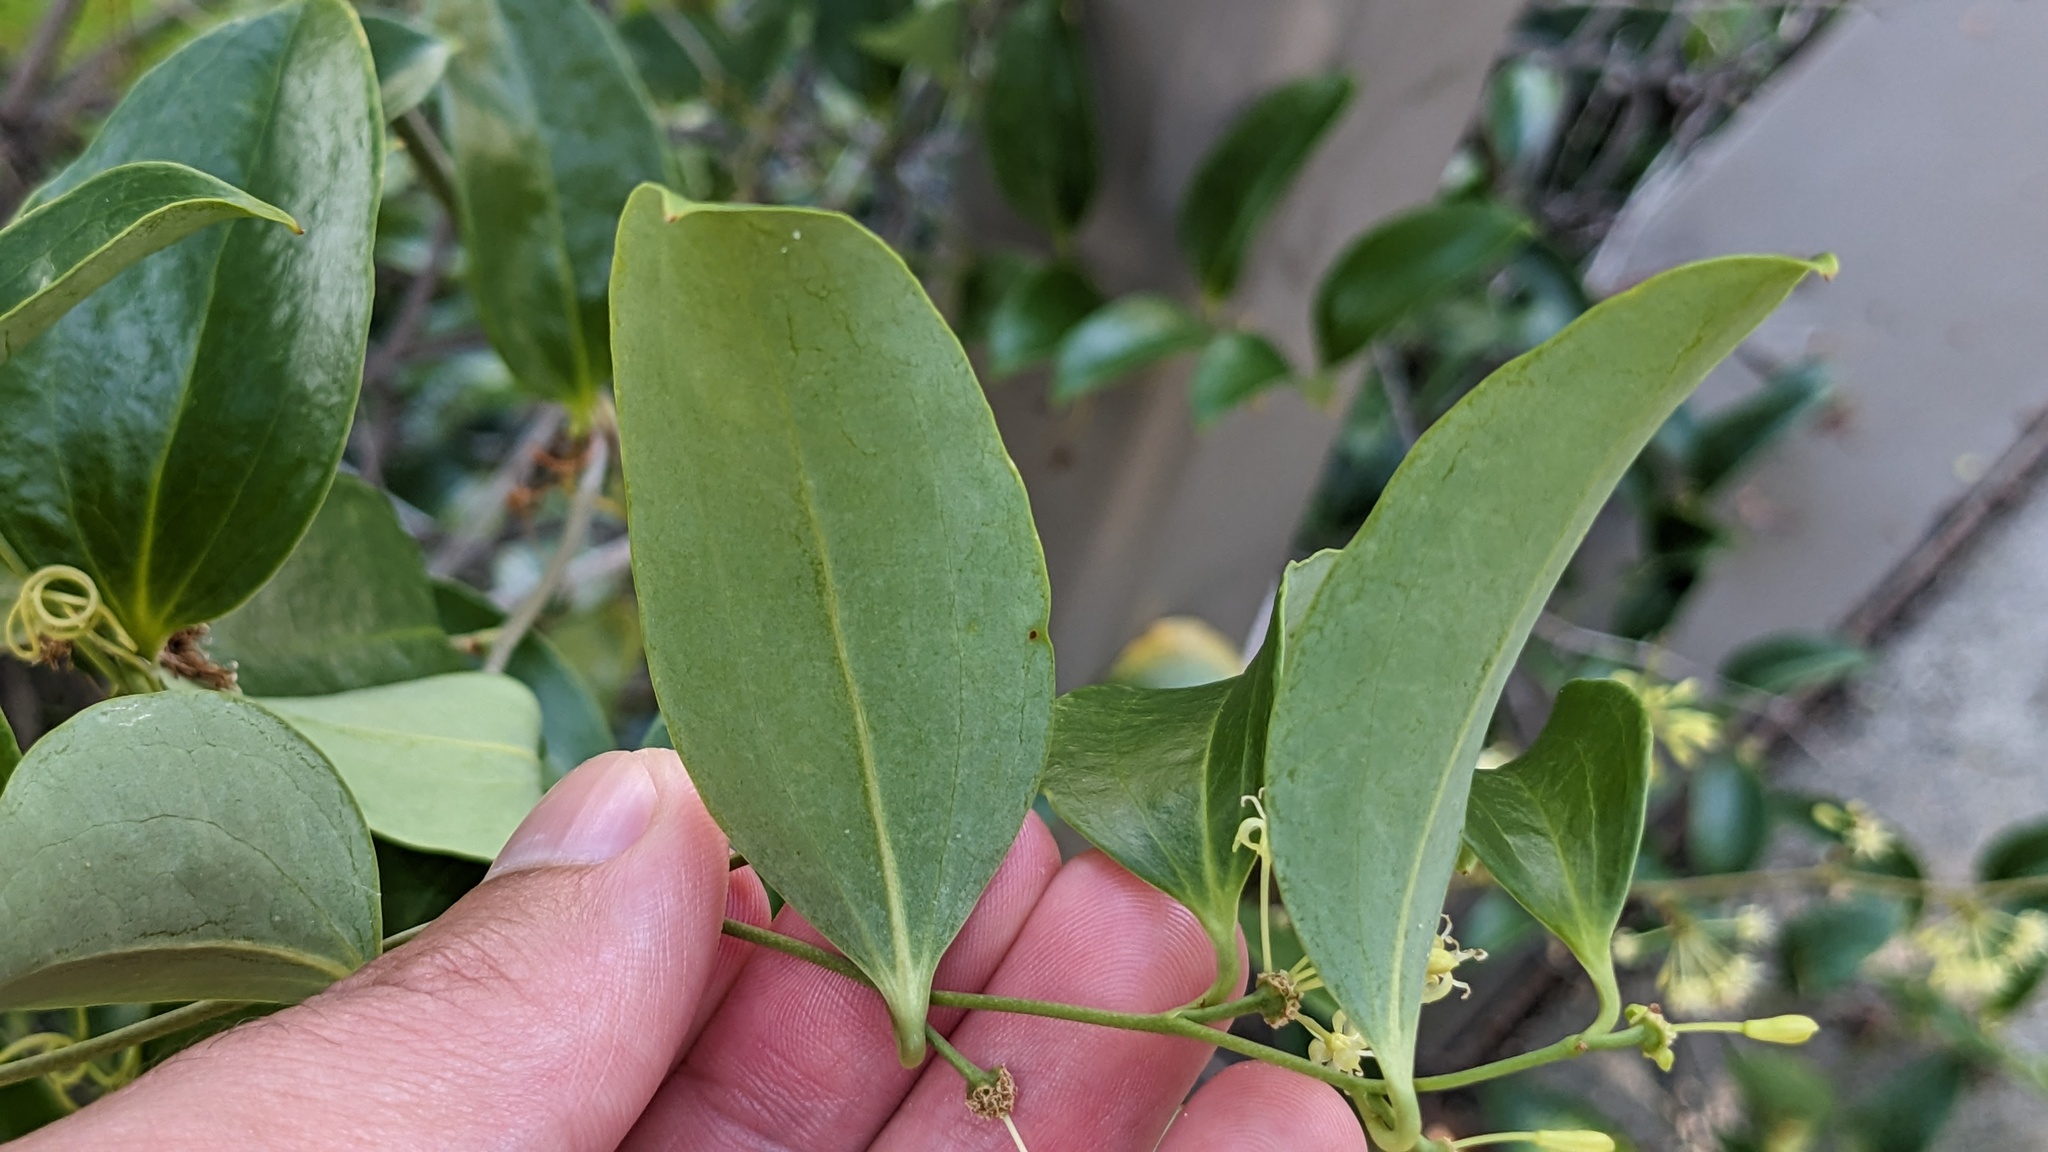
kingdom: Plantae
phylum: Tracheophyta
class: Liliopsida
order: Liliales
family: Smilacaceae
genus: Smilax
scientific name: Smilax maritima
